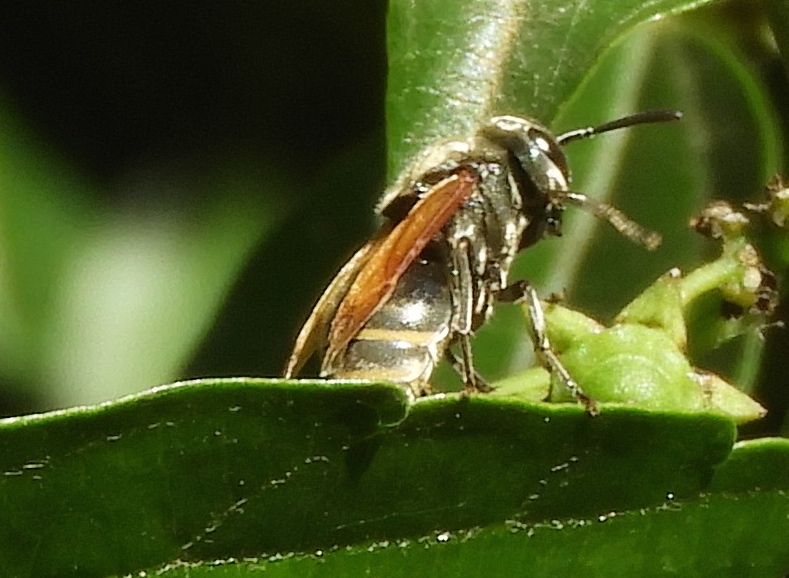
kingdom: Animalia
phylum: Arthropoda
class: Insecta
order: Hymenoptera
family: Vespidae
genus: Brachygastra
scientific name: Brachygastra mellifica
